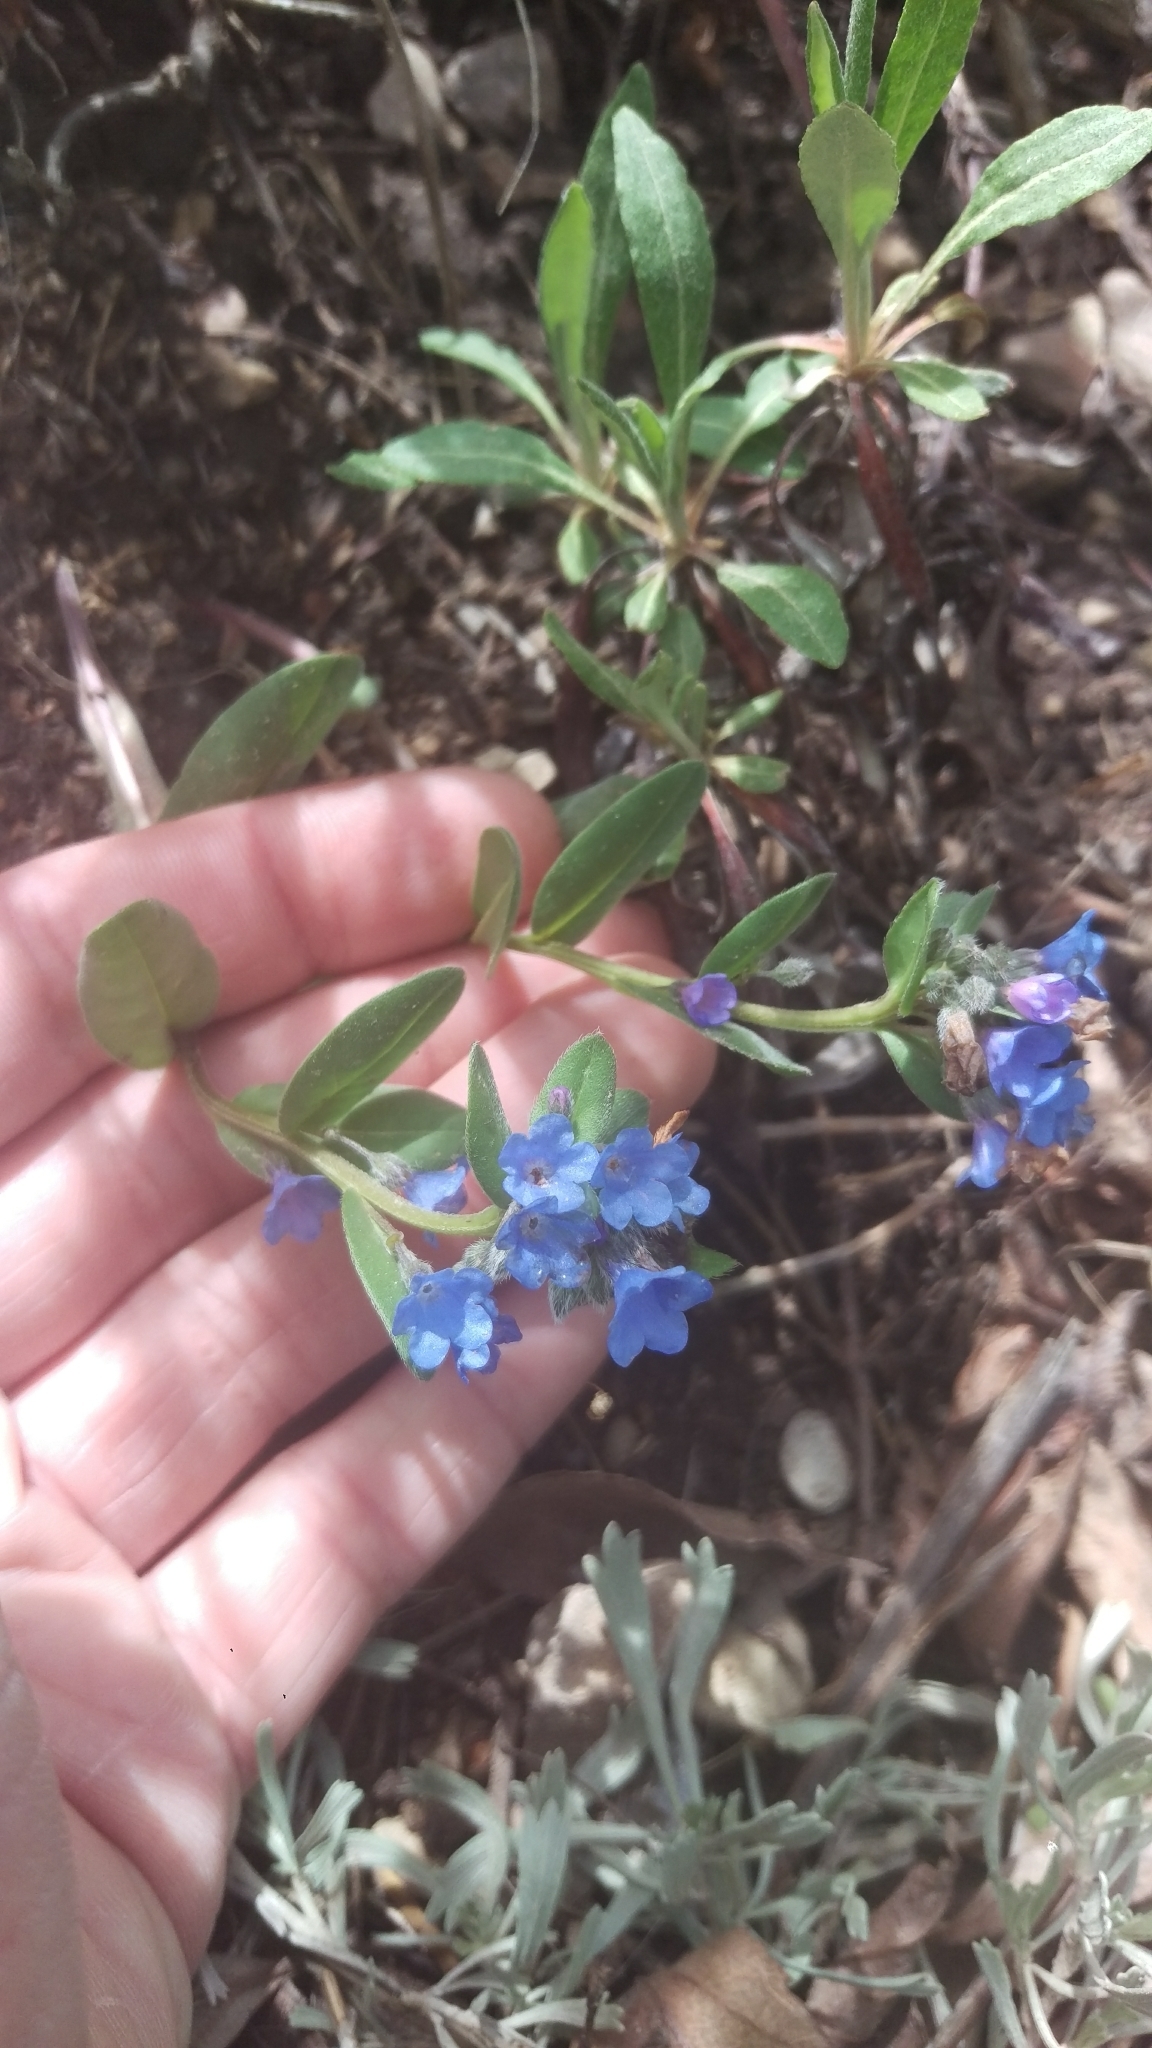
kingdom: Plantae
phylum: Tracheophyta
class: Magnoliopsida
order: Boraginales
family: Boraginaceae
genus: Mertensia
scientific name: Mertensia brevistyla
